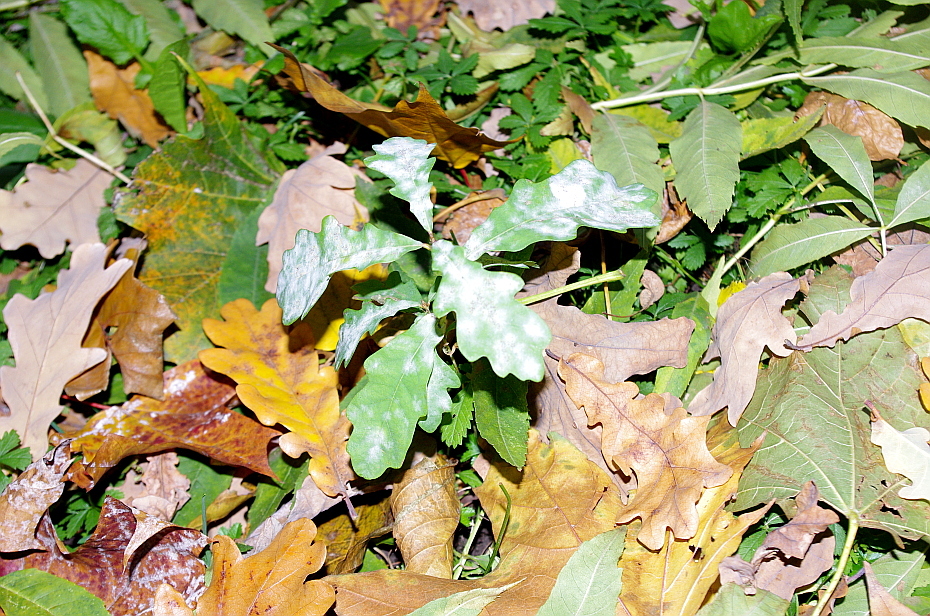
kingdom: Plantae
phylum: Tracheophyta
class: Magnoliopsida
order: Fagales
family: Fagaceae
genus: Quercus
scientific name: Quercus robur
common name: Pedunculate oak
